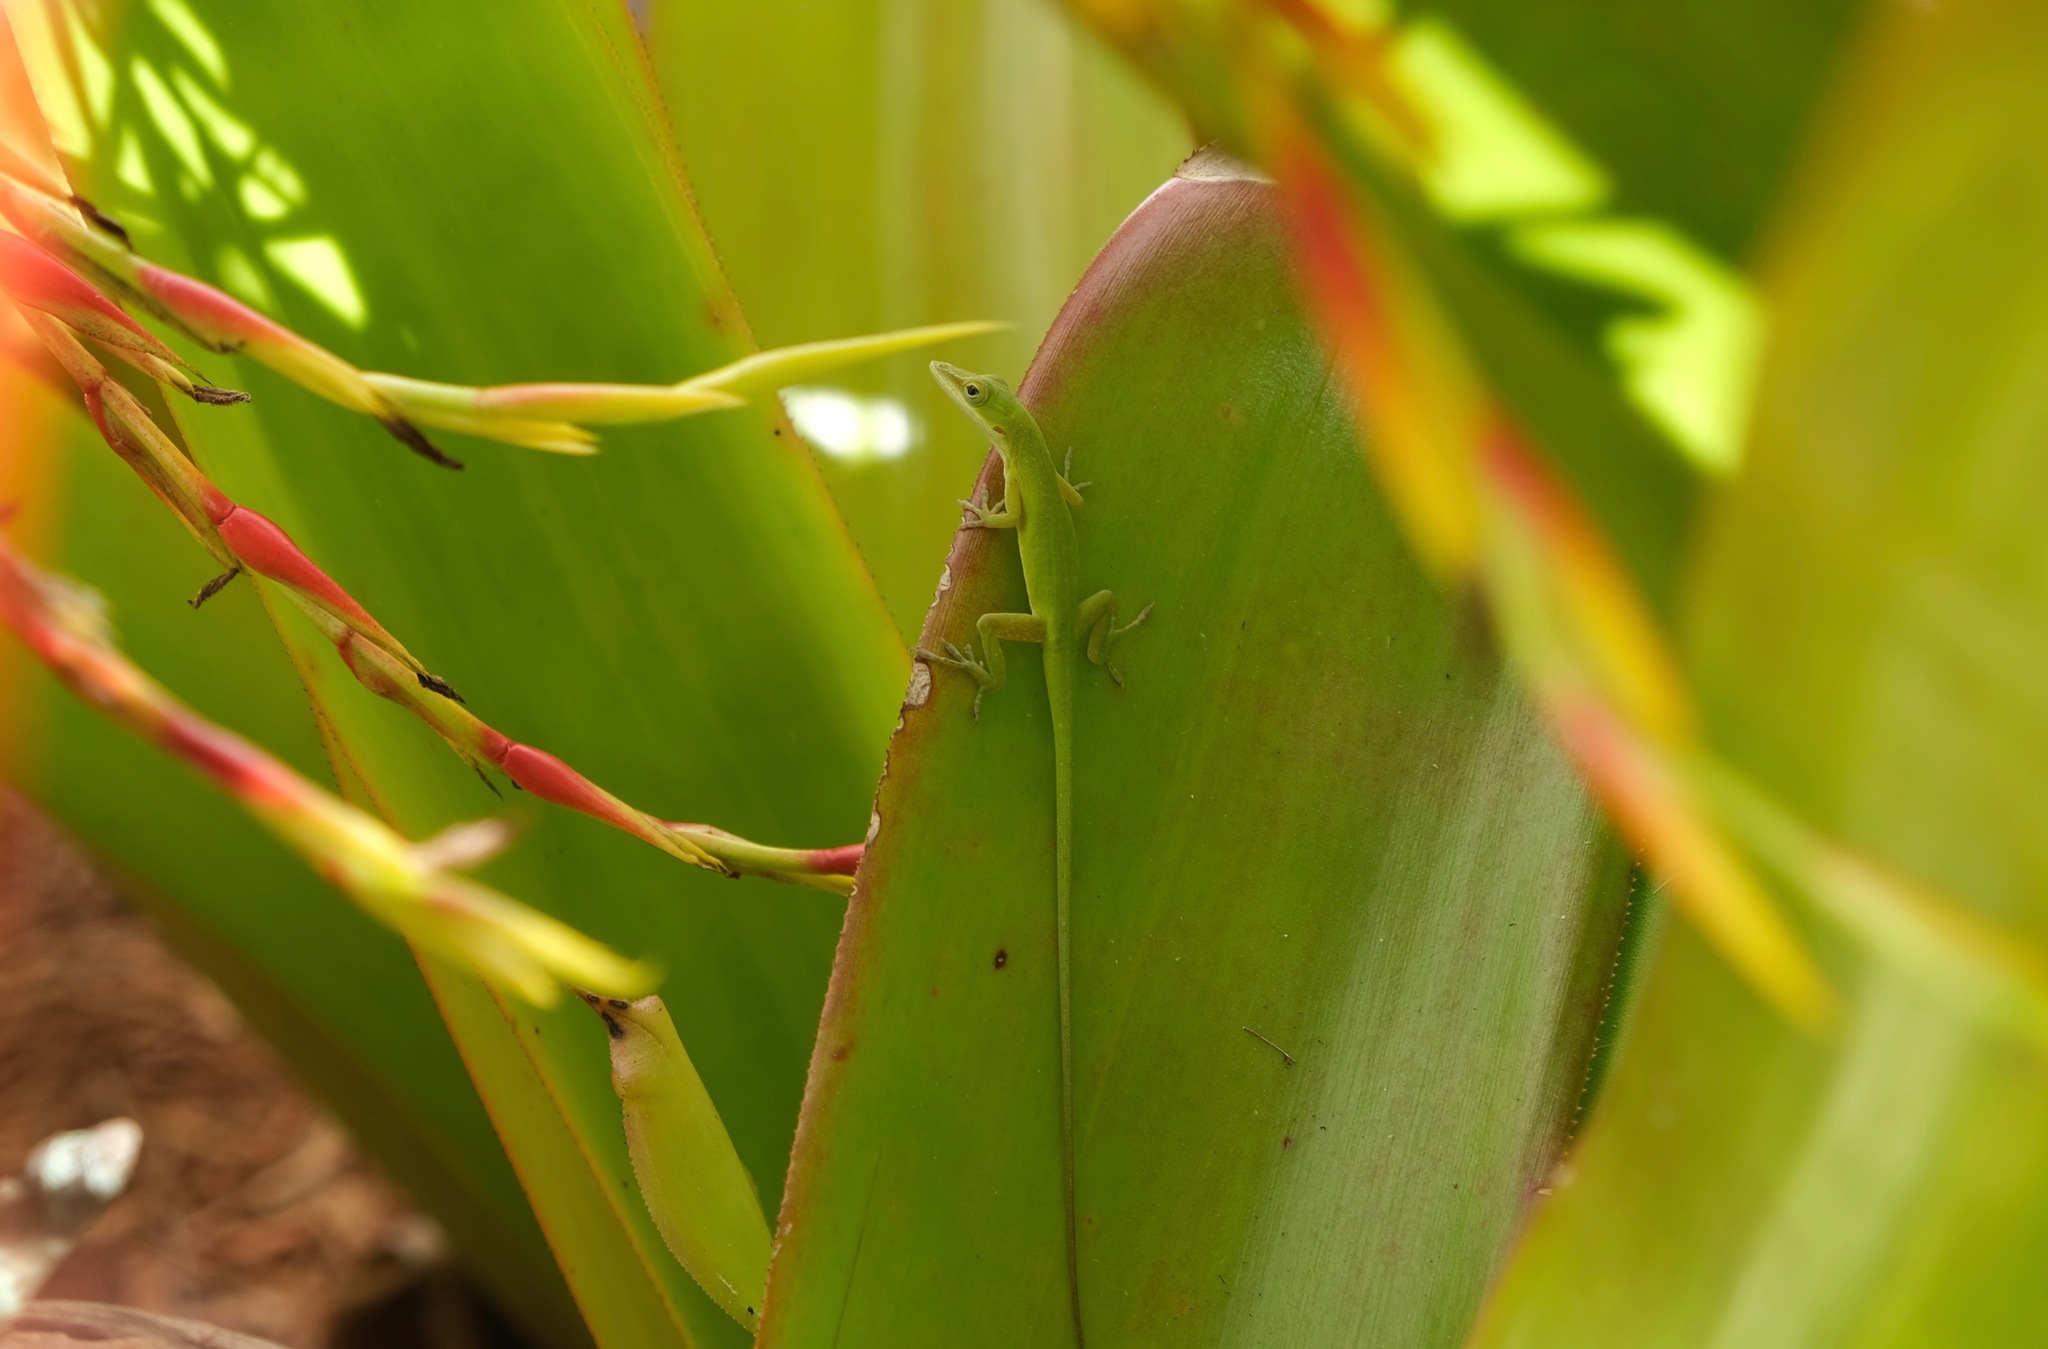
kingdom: Animalia
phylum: Chordata
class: Squamata
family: Dactyloidae
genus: Anolis
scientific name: Anolis allisoni
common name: Allison's anole
